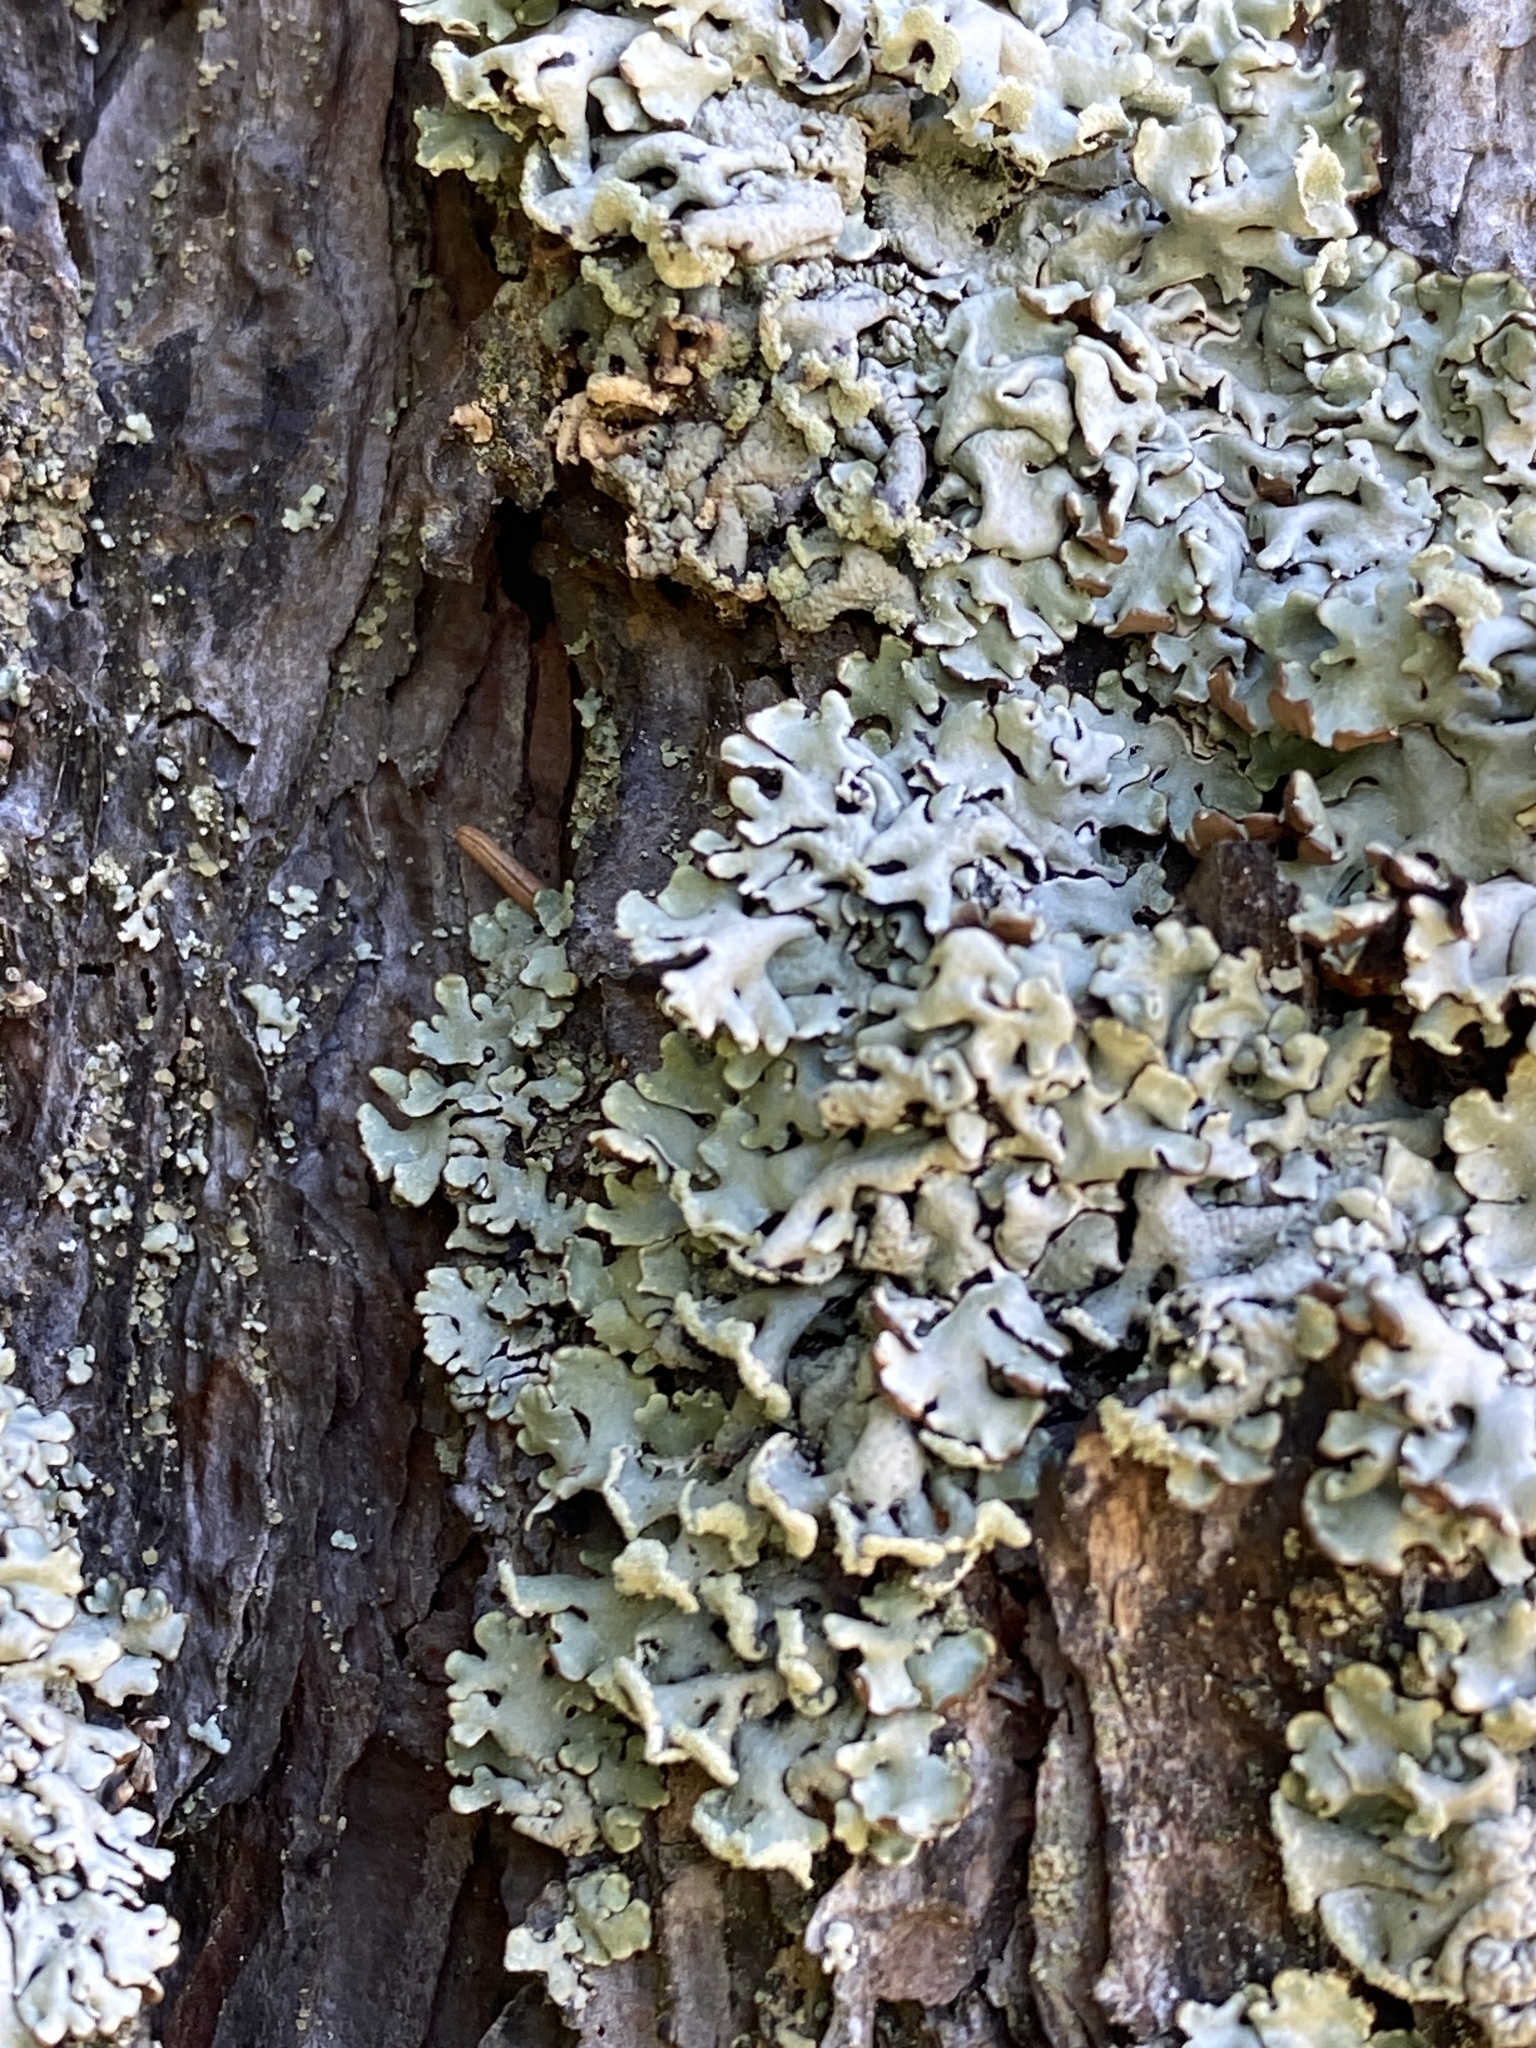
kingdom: Fungi
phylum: Ascomycota
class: Lecanoromycetes
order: Lecanorales
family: Parmeliaceae
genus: Hypogymnia
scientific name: Hypogymnia physodes
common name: Dark crottle
